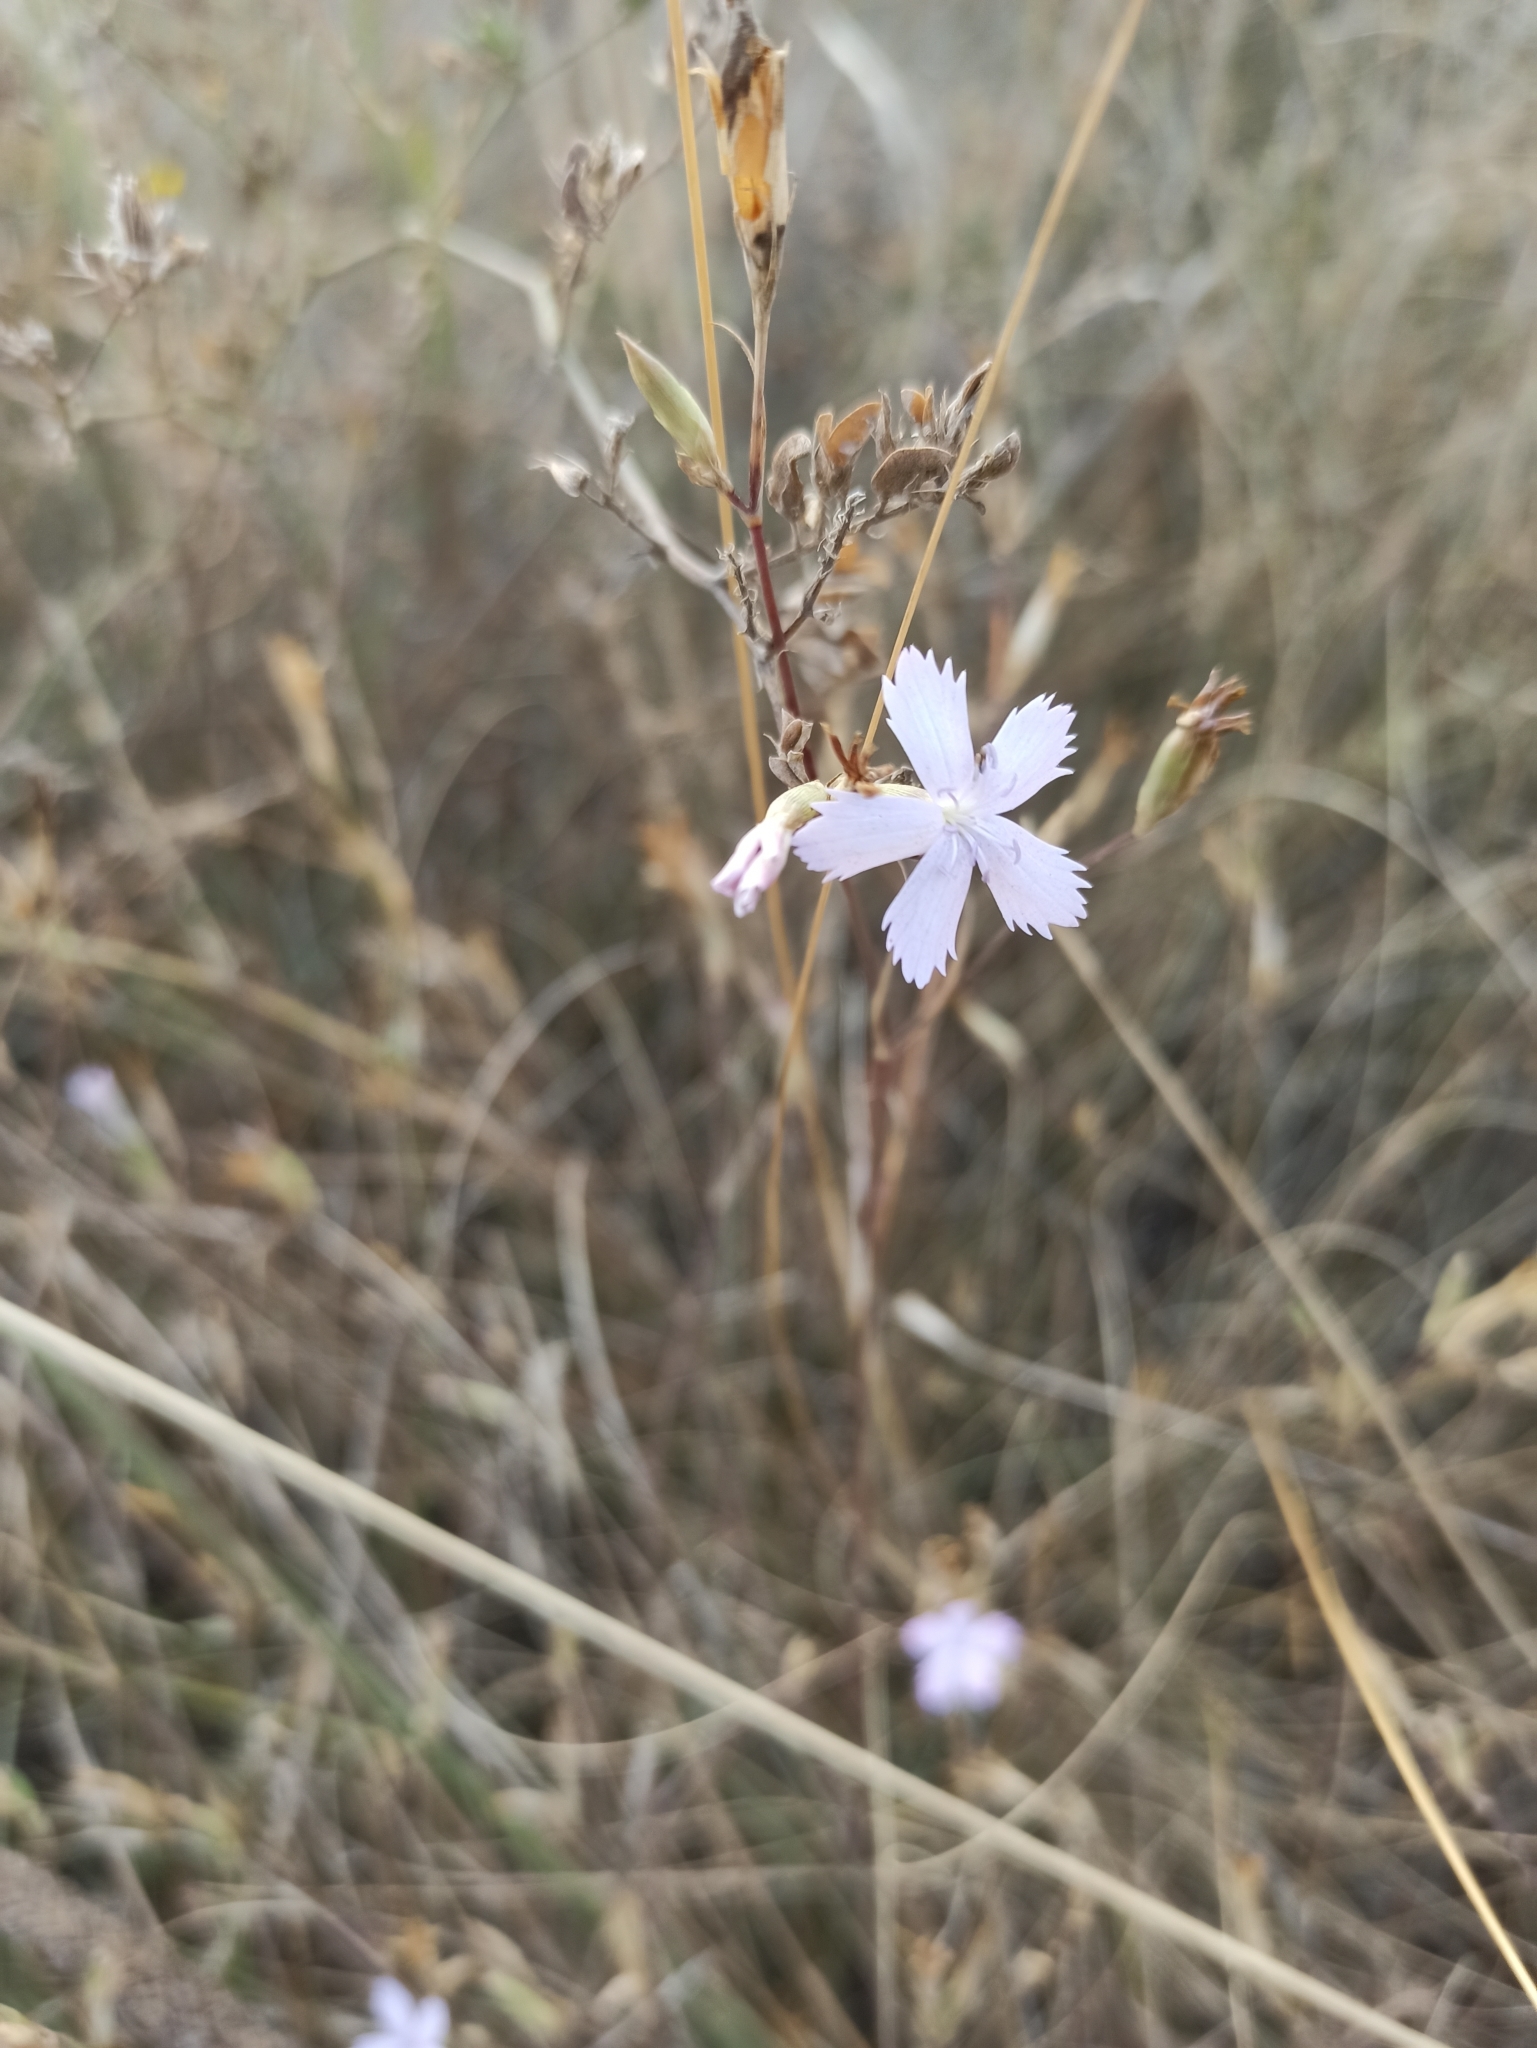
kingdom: Plantae
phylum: Tracheophyta
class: Magnoliopsida
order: Caryophyllales
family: Caryophyllaceae
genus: Dianthus
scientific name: Dianthus pallens
